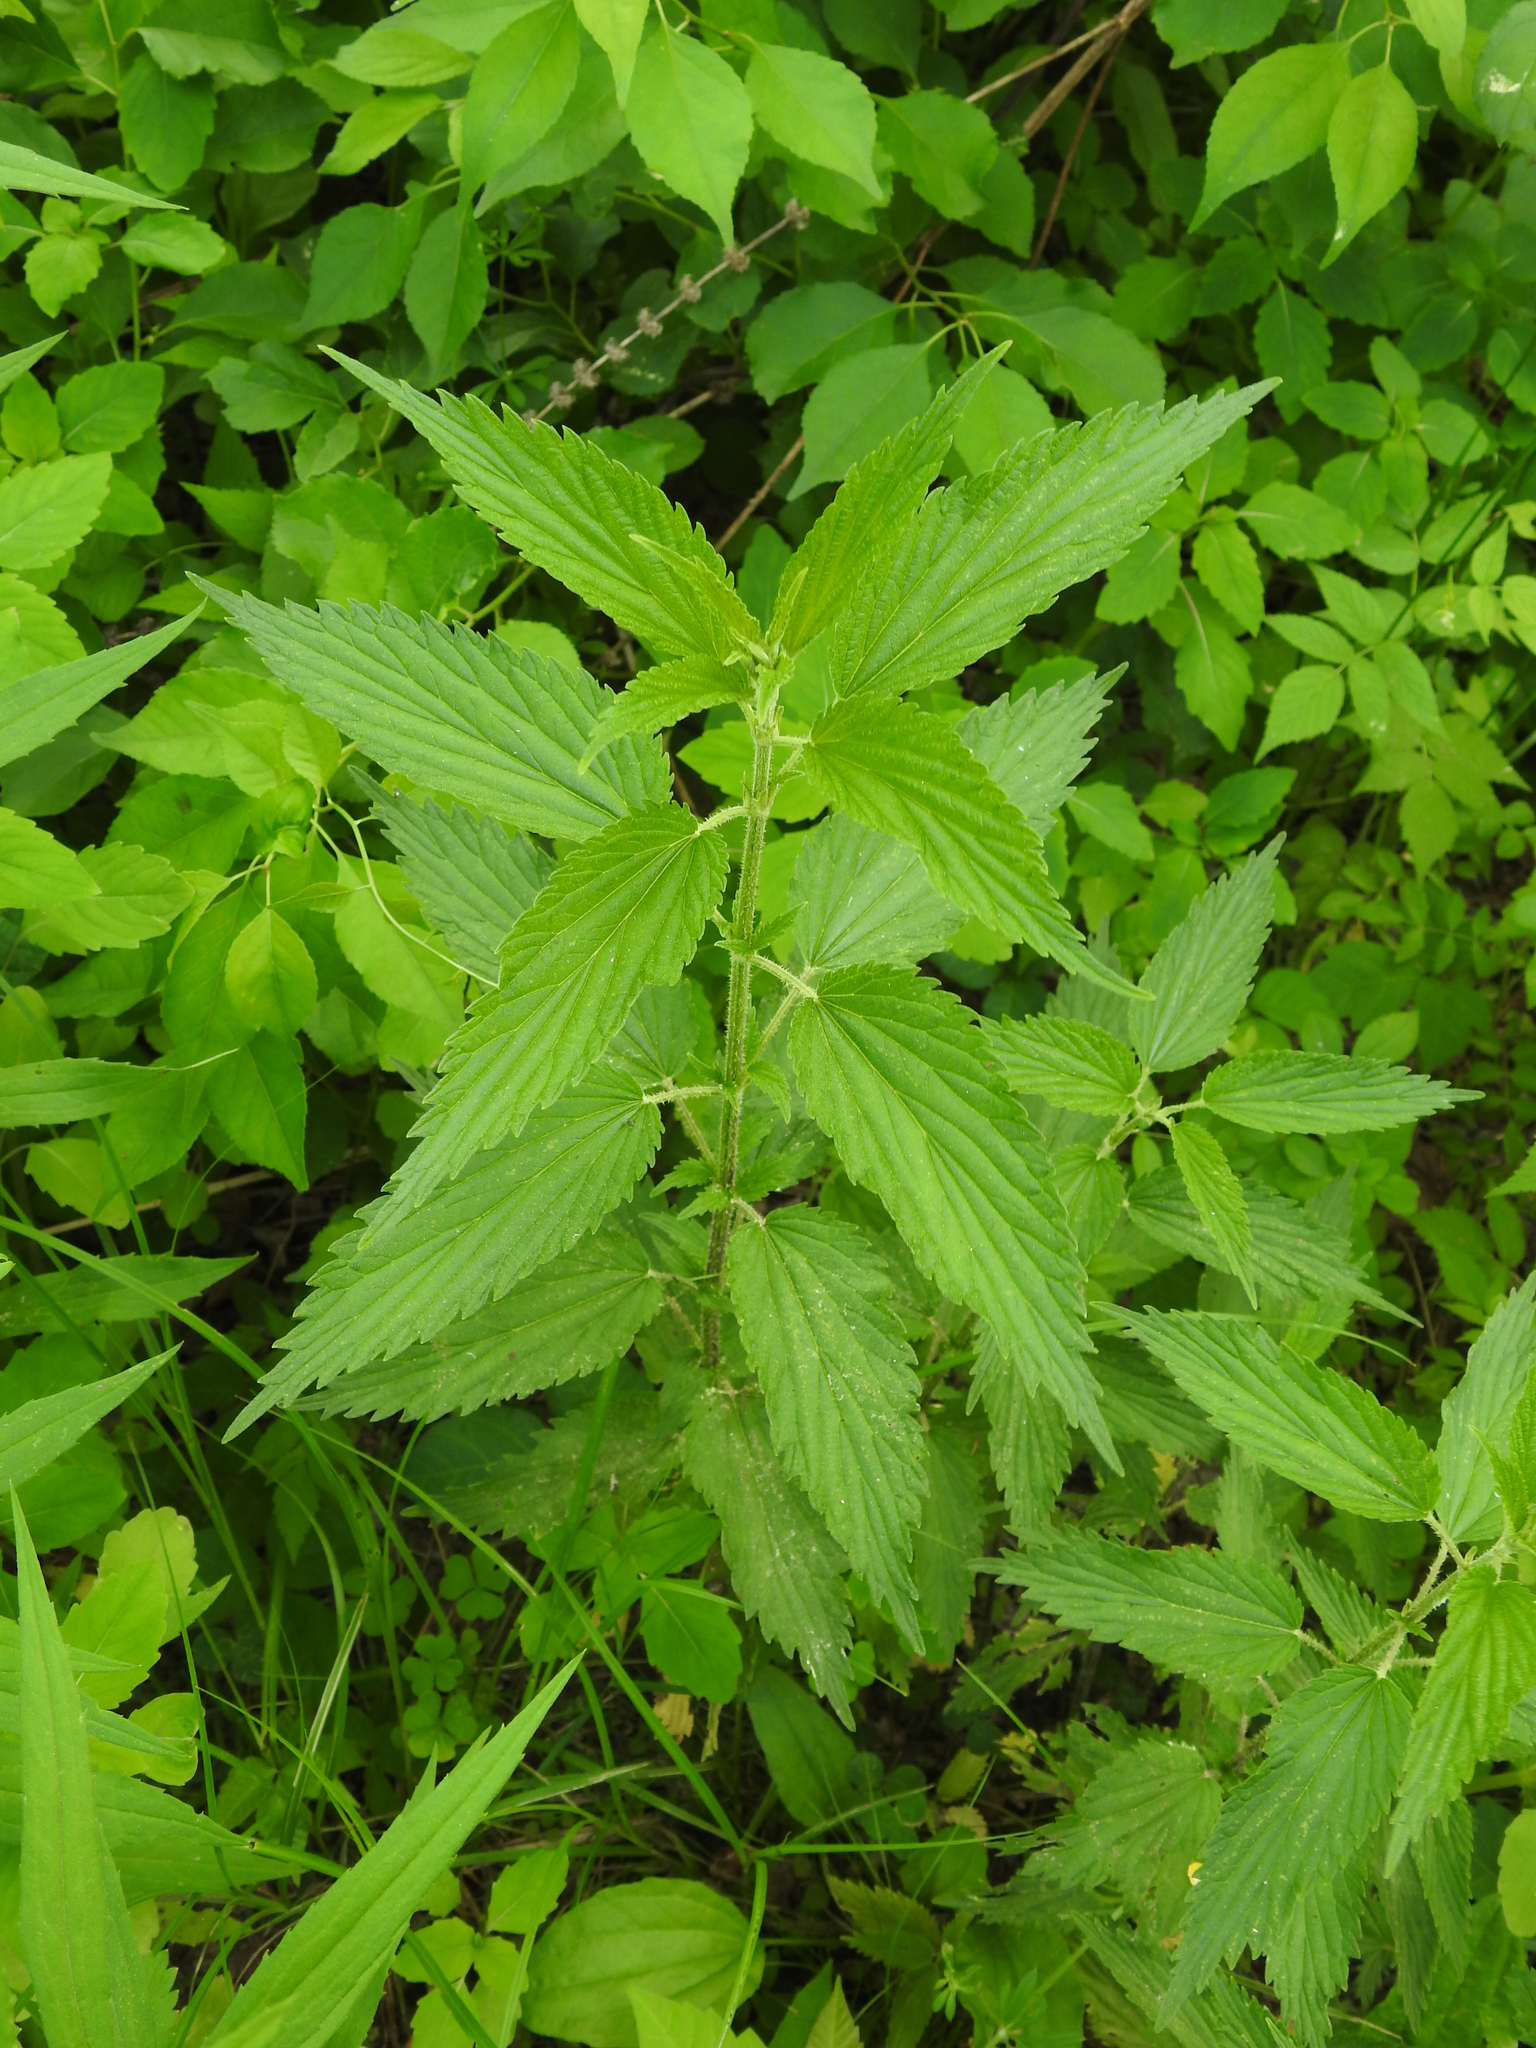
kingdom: Plantae
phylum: Tracheophyta
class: Magnoliopsida
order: Rosales
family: Urticaceae
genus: Urtica
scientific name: Urtica dioica
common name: Common nettle
